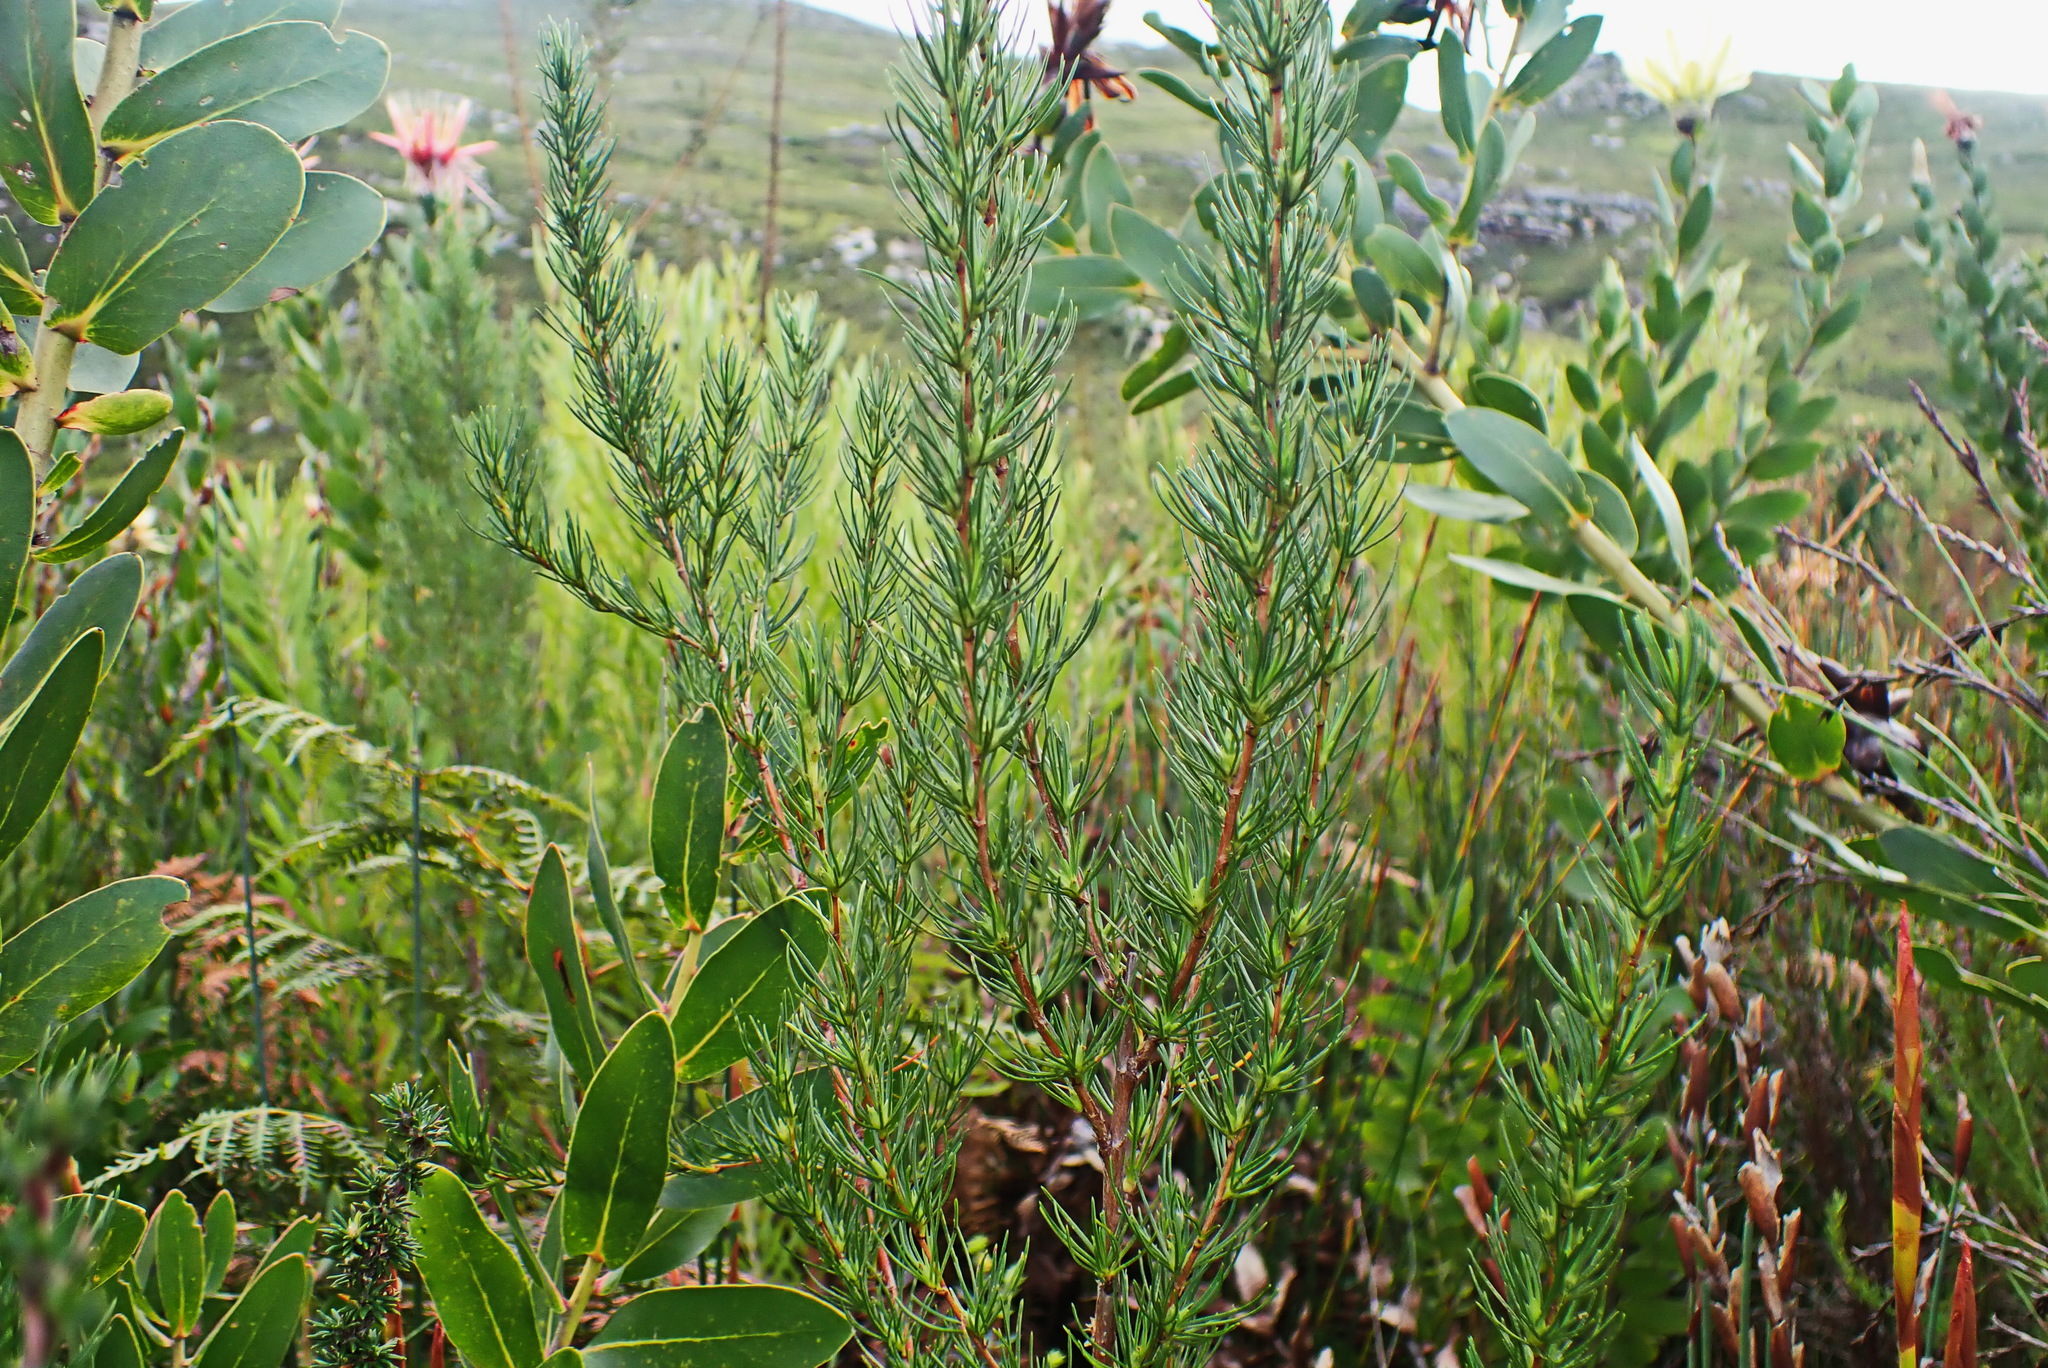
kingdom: Plantae
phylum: Tracheophyta
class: Magnoliopsida
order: Rosales
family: Rosaceae
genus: Cliffortia
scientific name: Cliffortia burchellii
